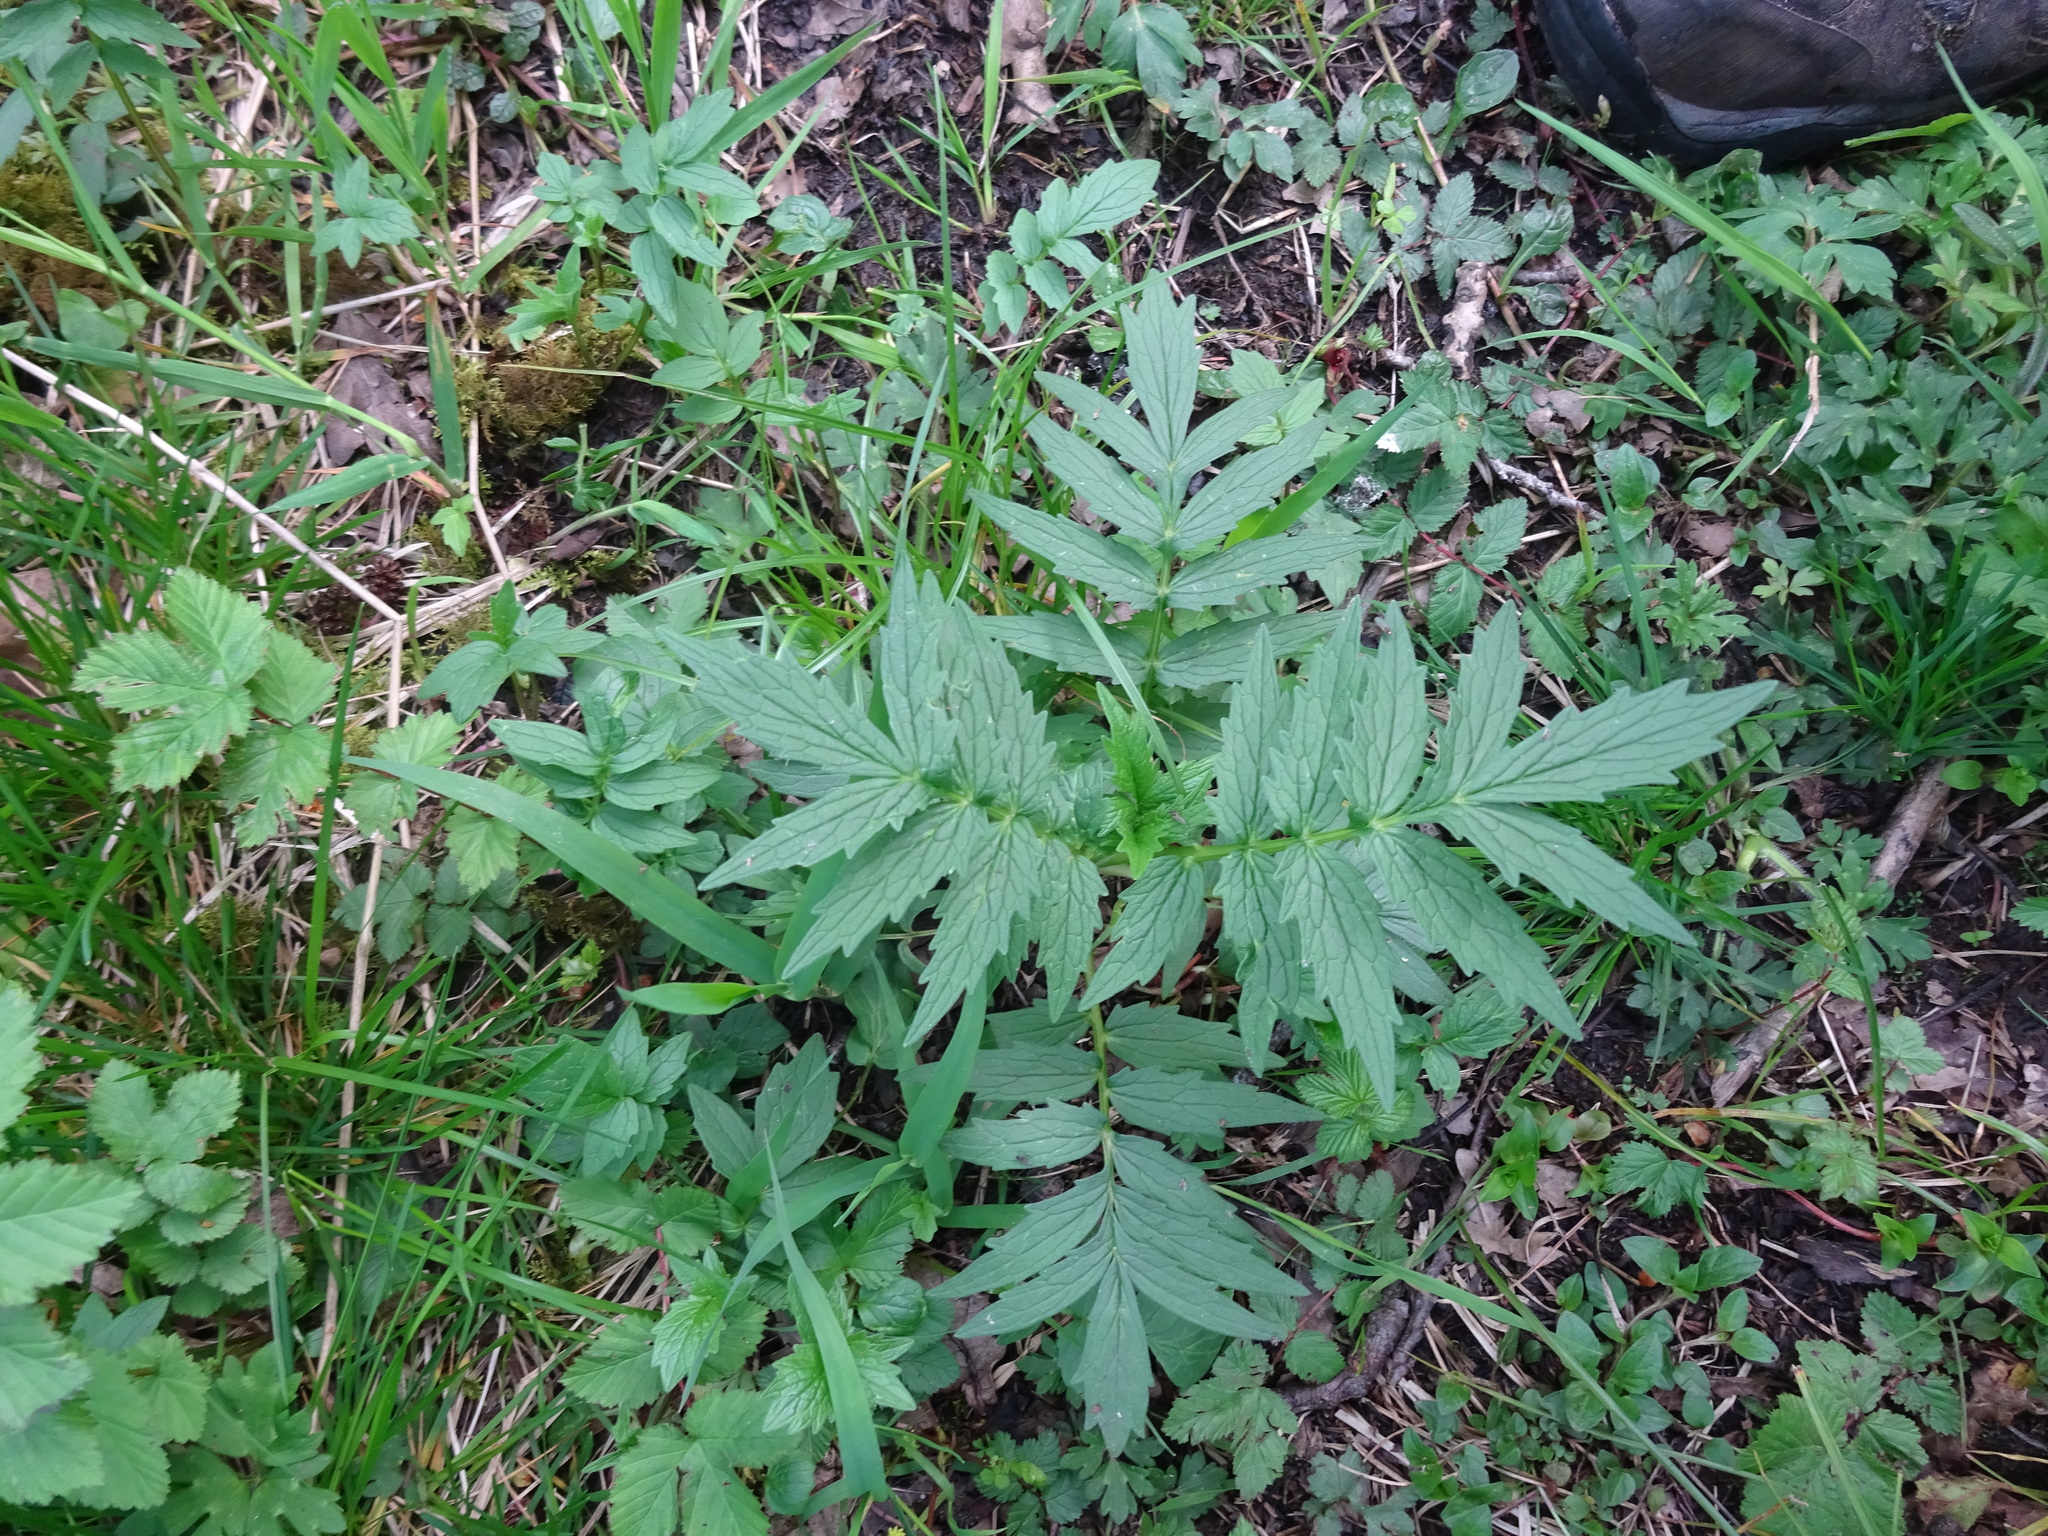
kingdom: Plantae
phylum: Tracheophyta
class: Magnoliopsida
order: Dipsacales
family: Caprifoliaceae
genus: Valeriana
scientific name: Valeriana officinalis
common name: Common valerian
